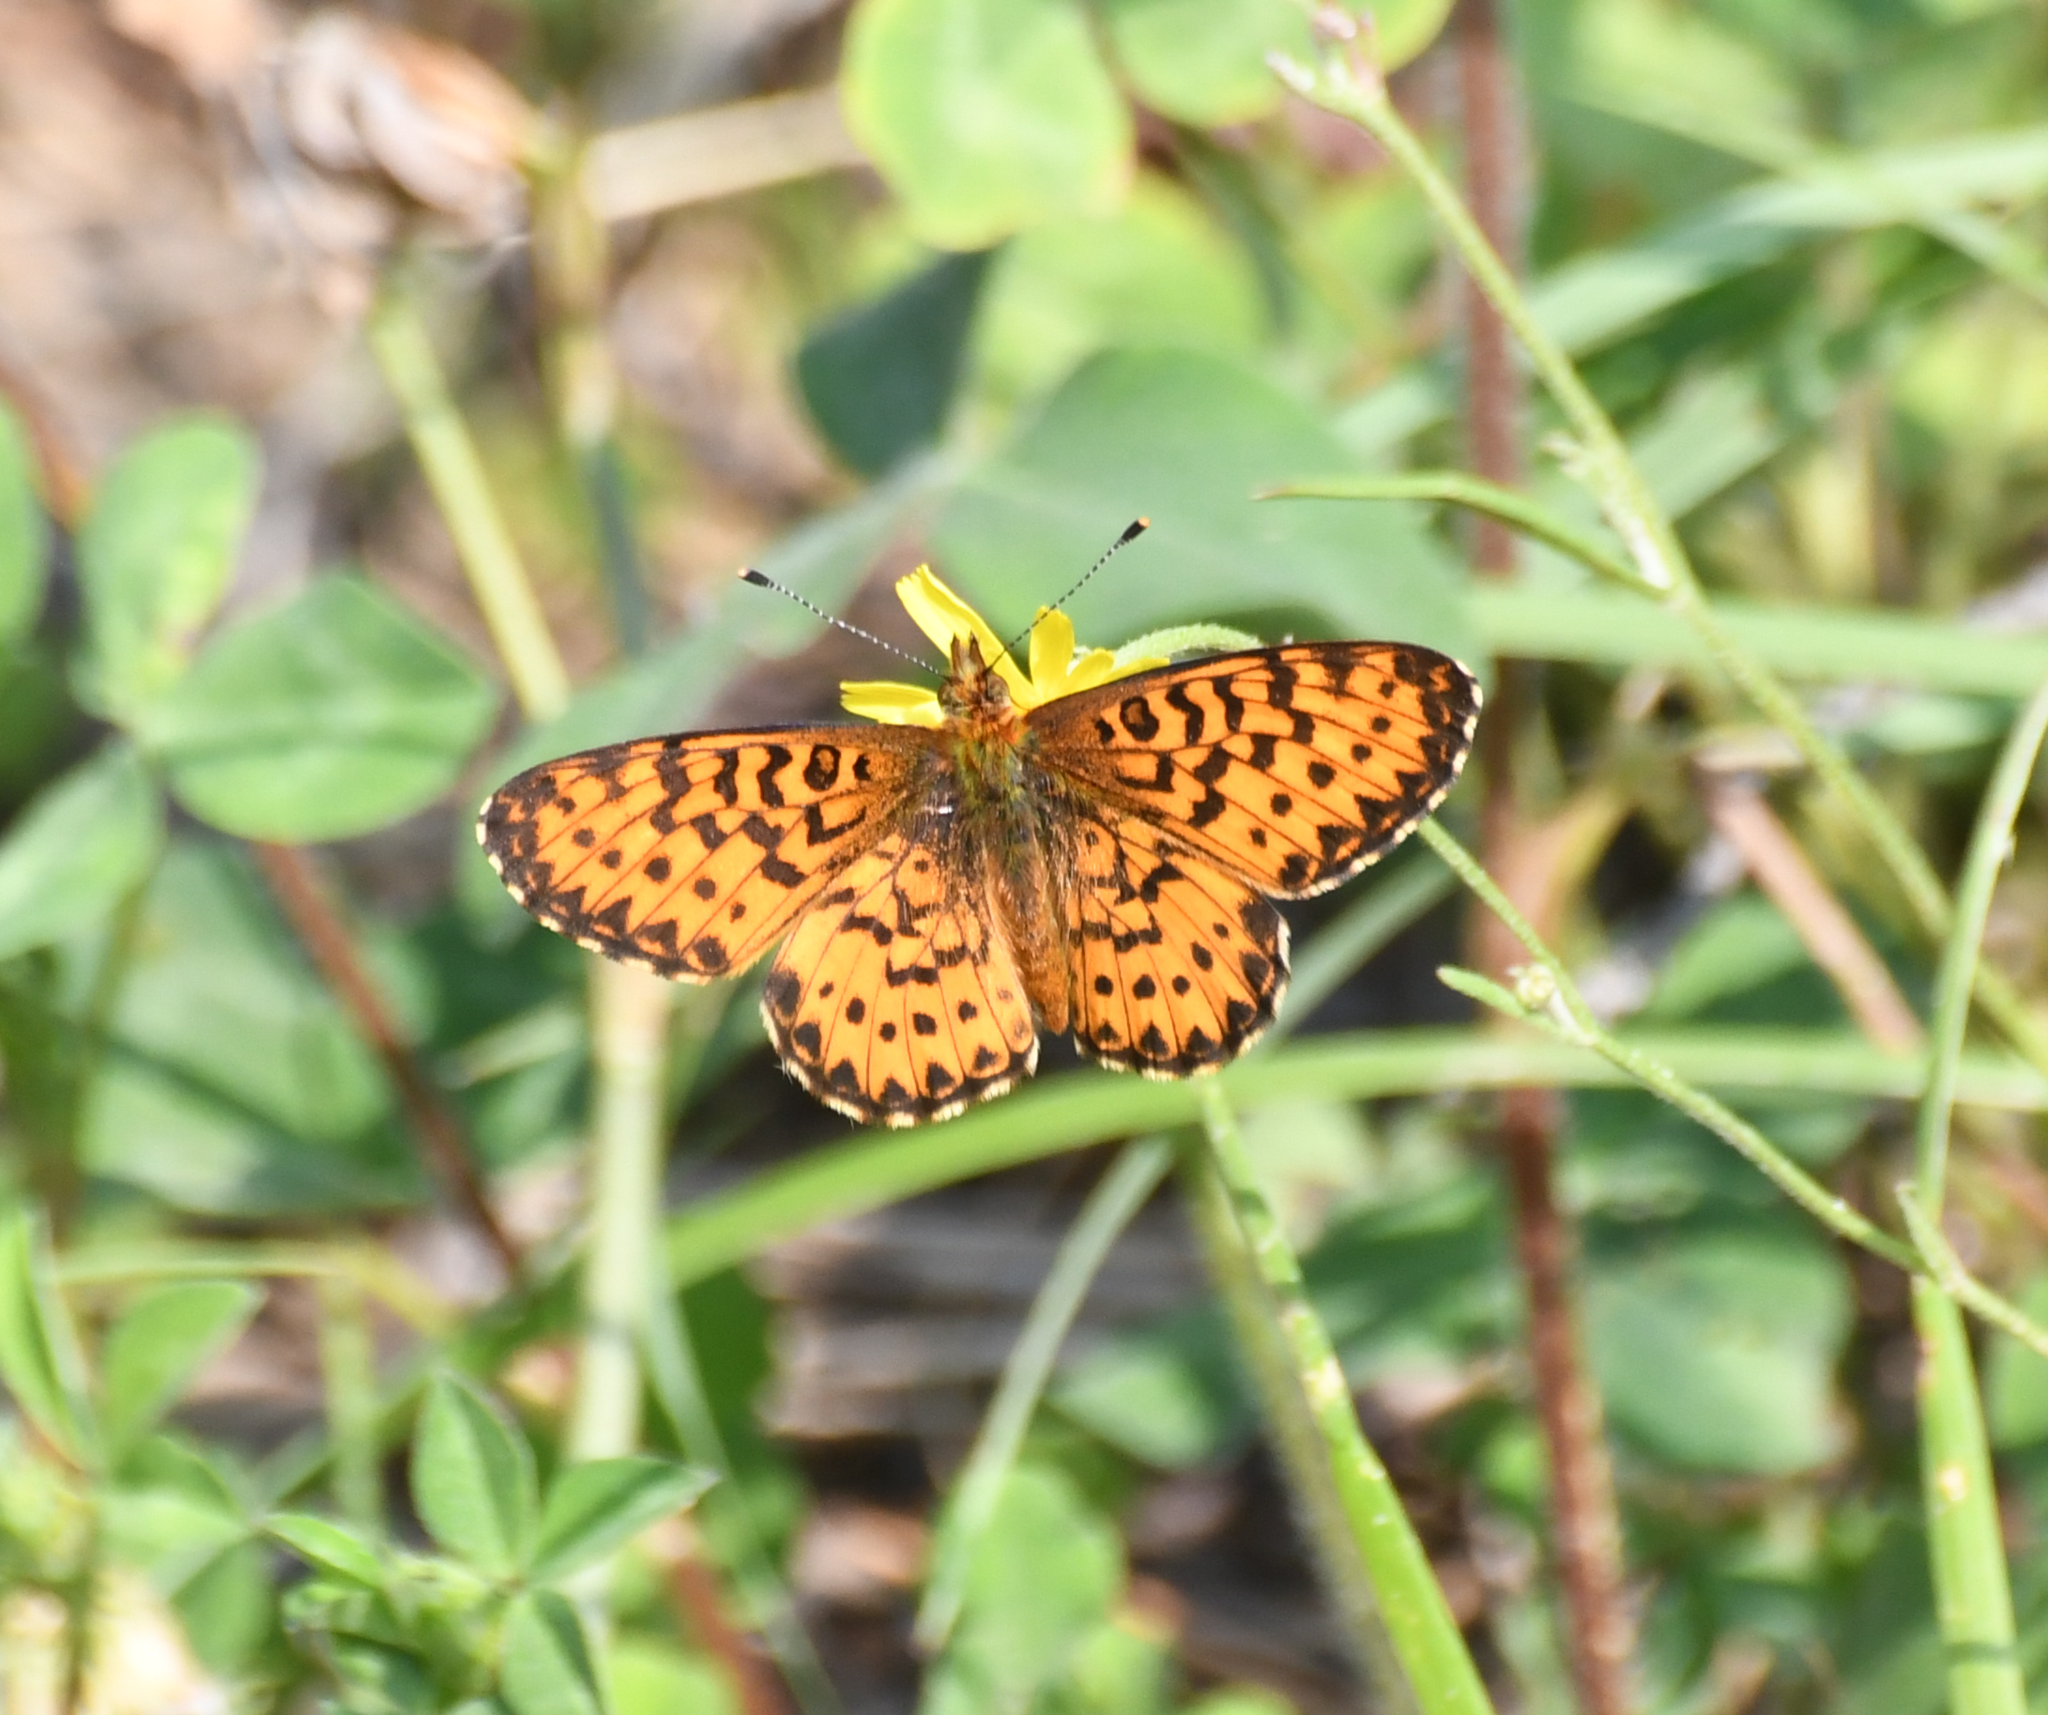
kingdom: Animalia
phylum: Arthropoda
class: Insecta
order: Lepidoptera
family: Nymphalidae
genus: Boloria
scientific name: Boloria chariclea
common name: Arctic fritillary
